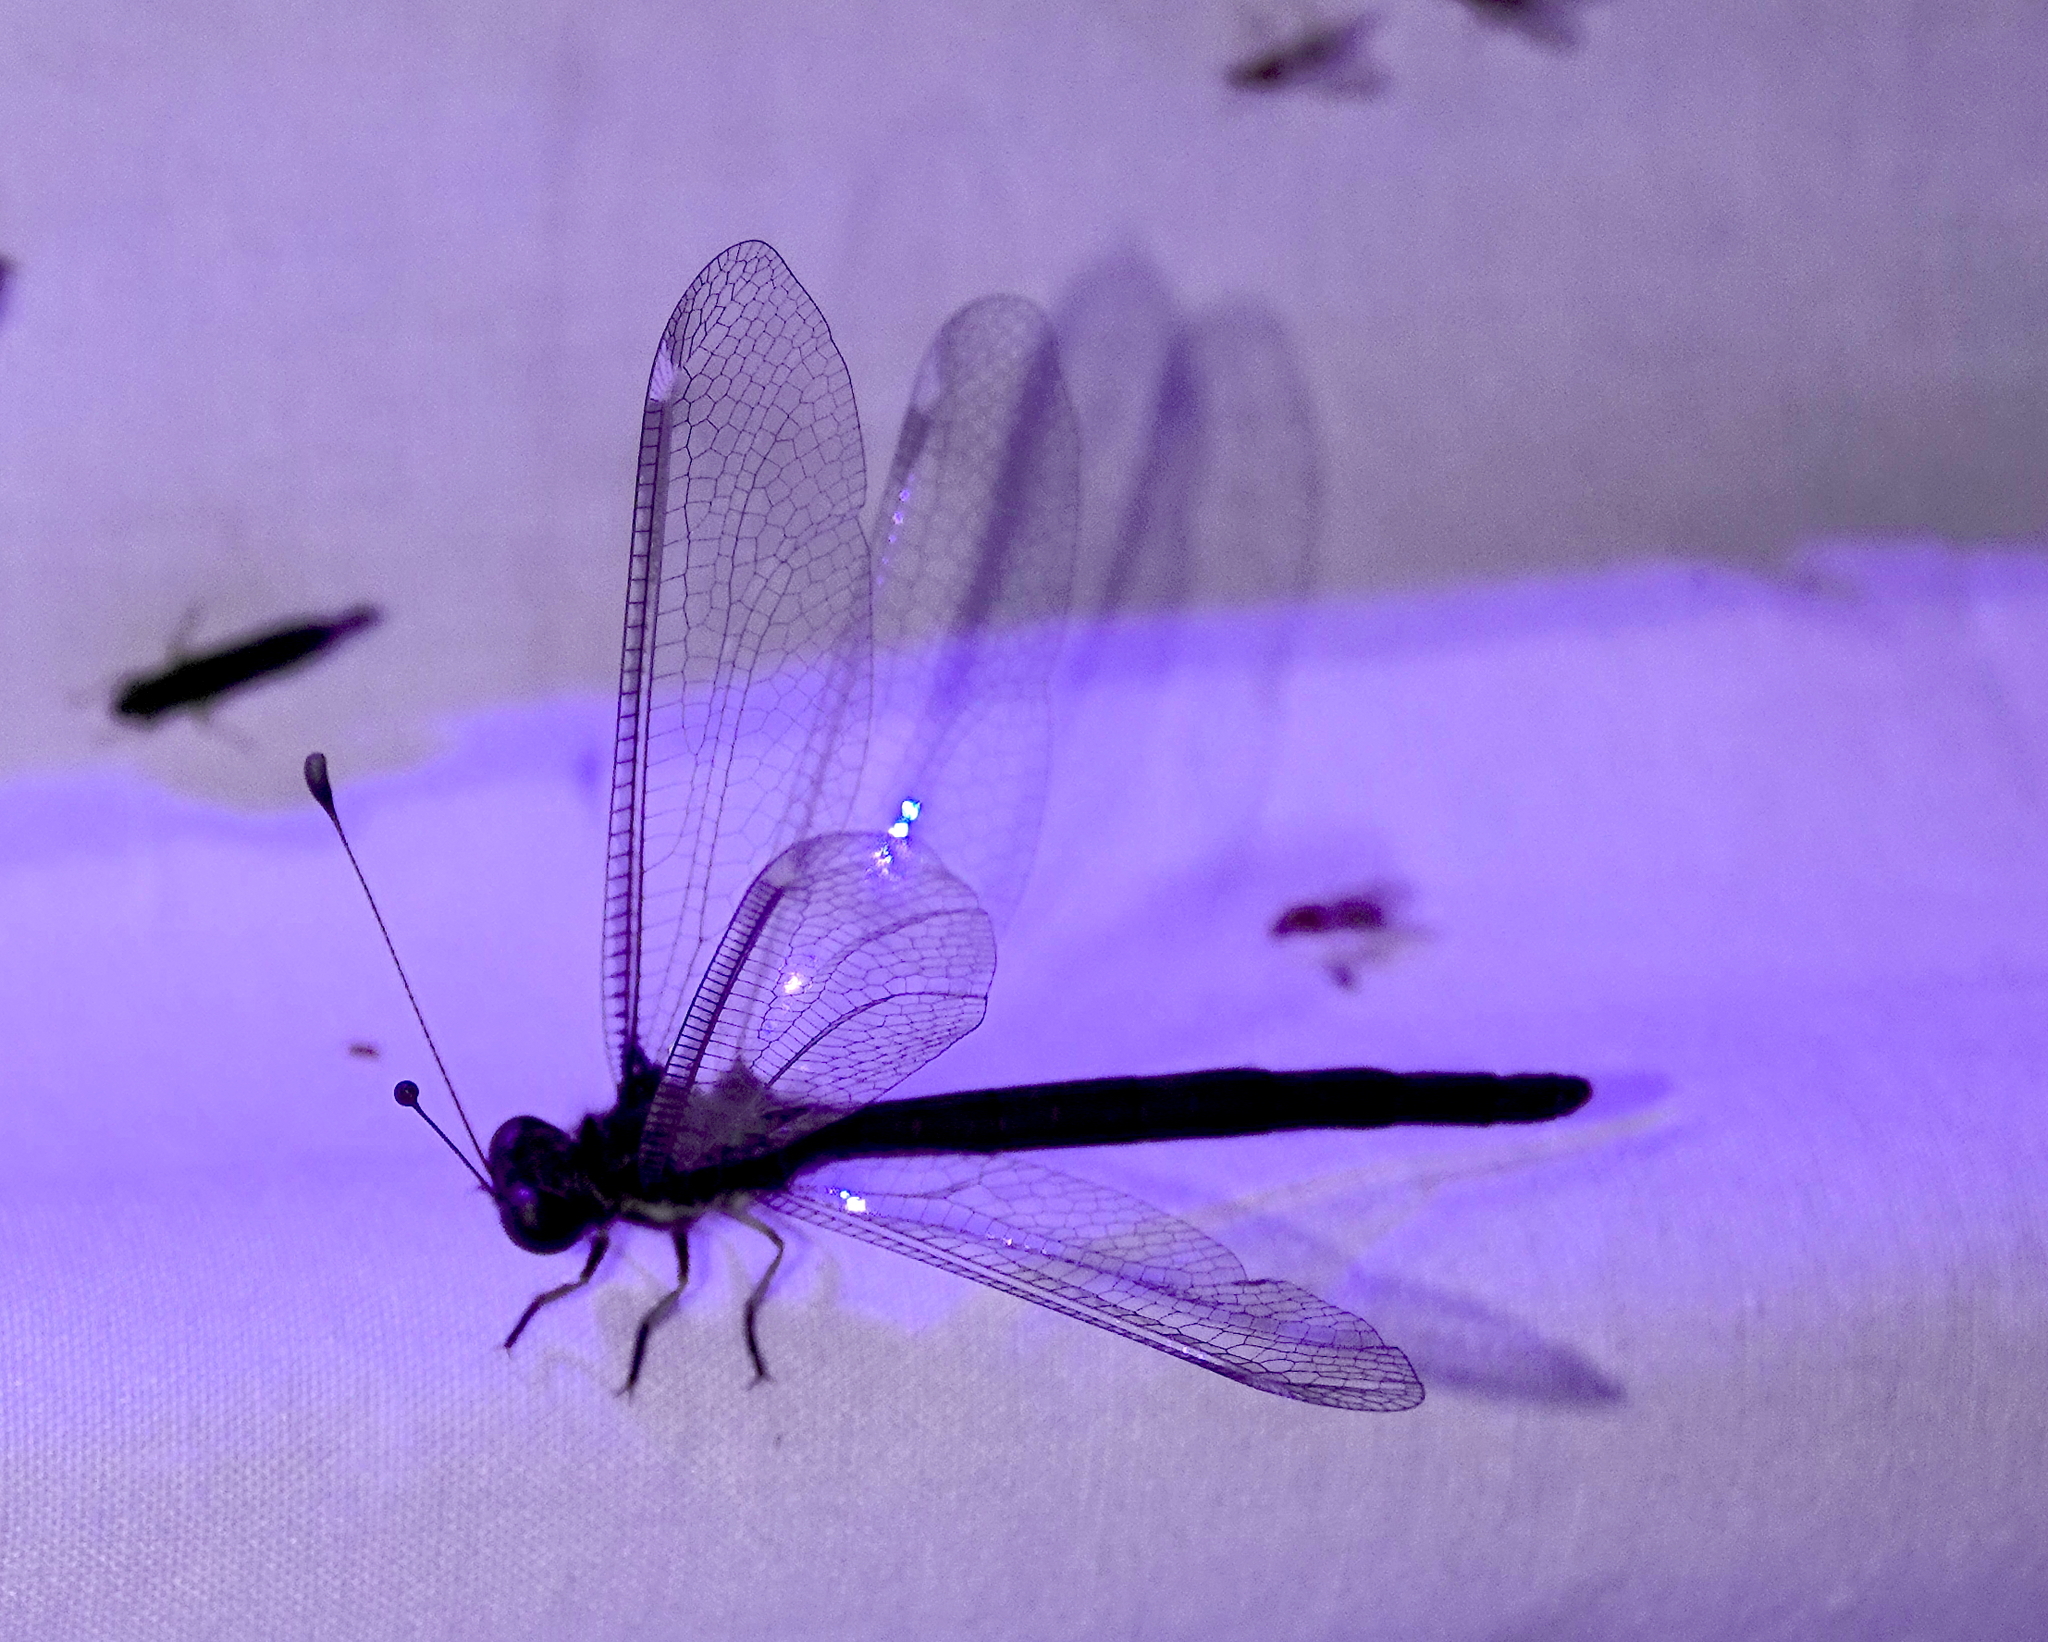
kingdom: Animalia
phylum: Arthropoda
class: Insecta
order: Neuroptera
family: Ascalaphidae
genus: Ascalobyas
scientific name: Ascalobyas albistigma
